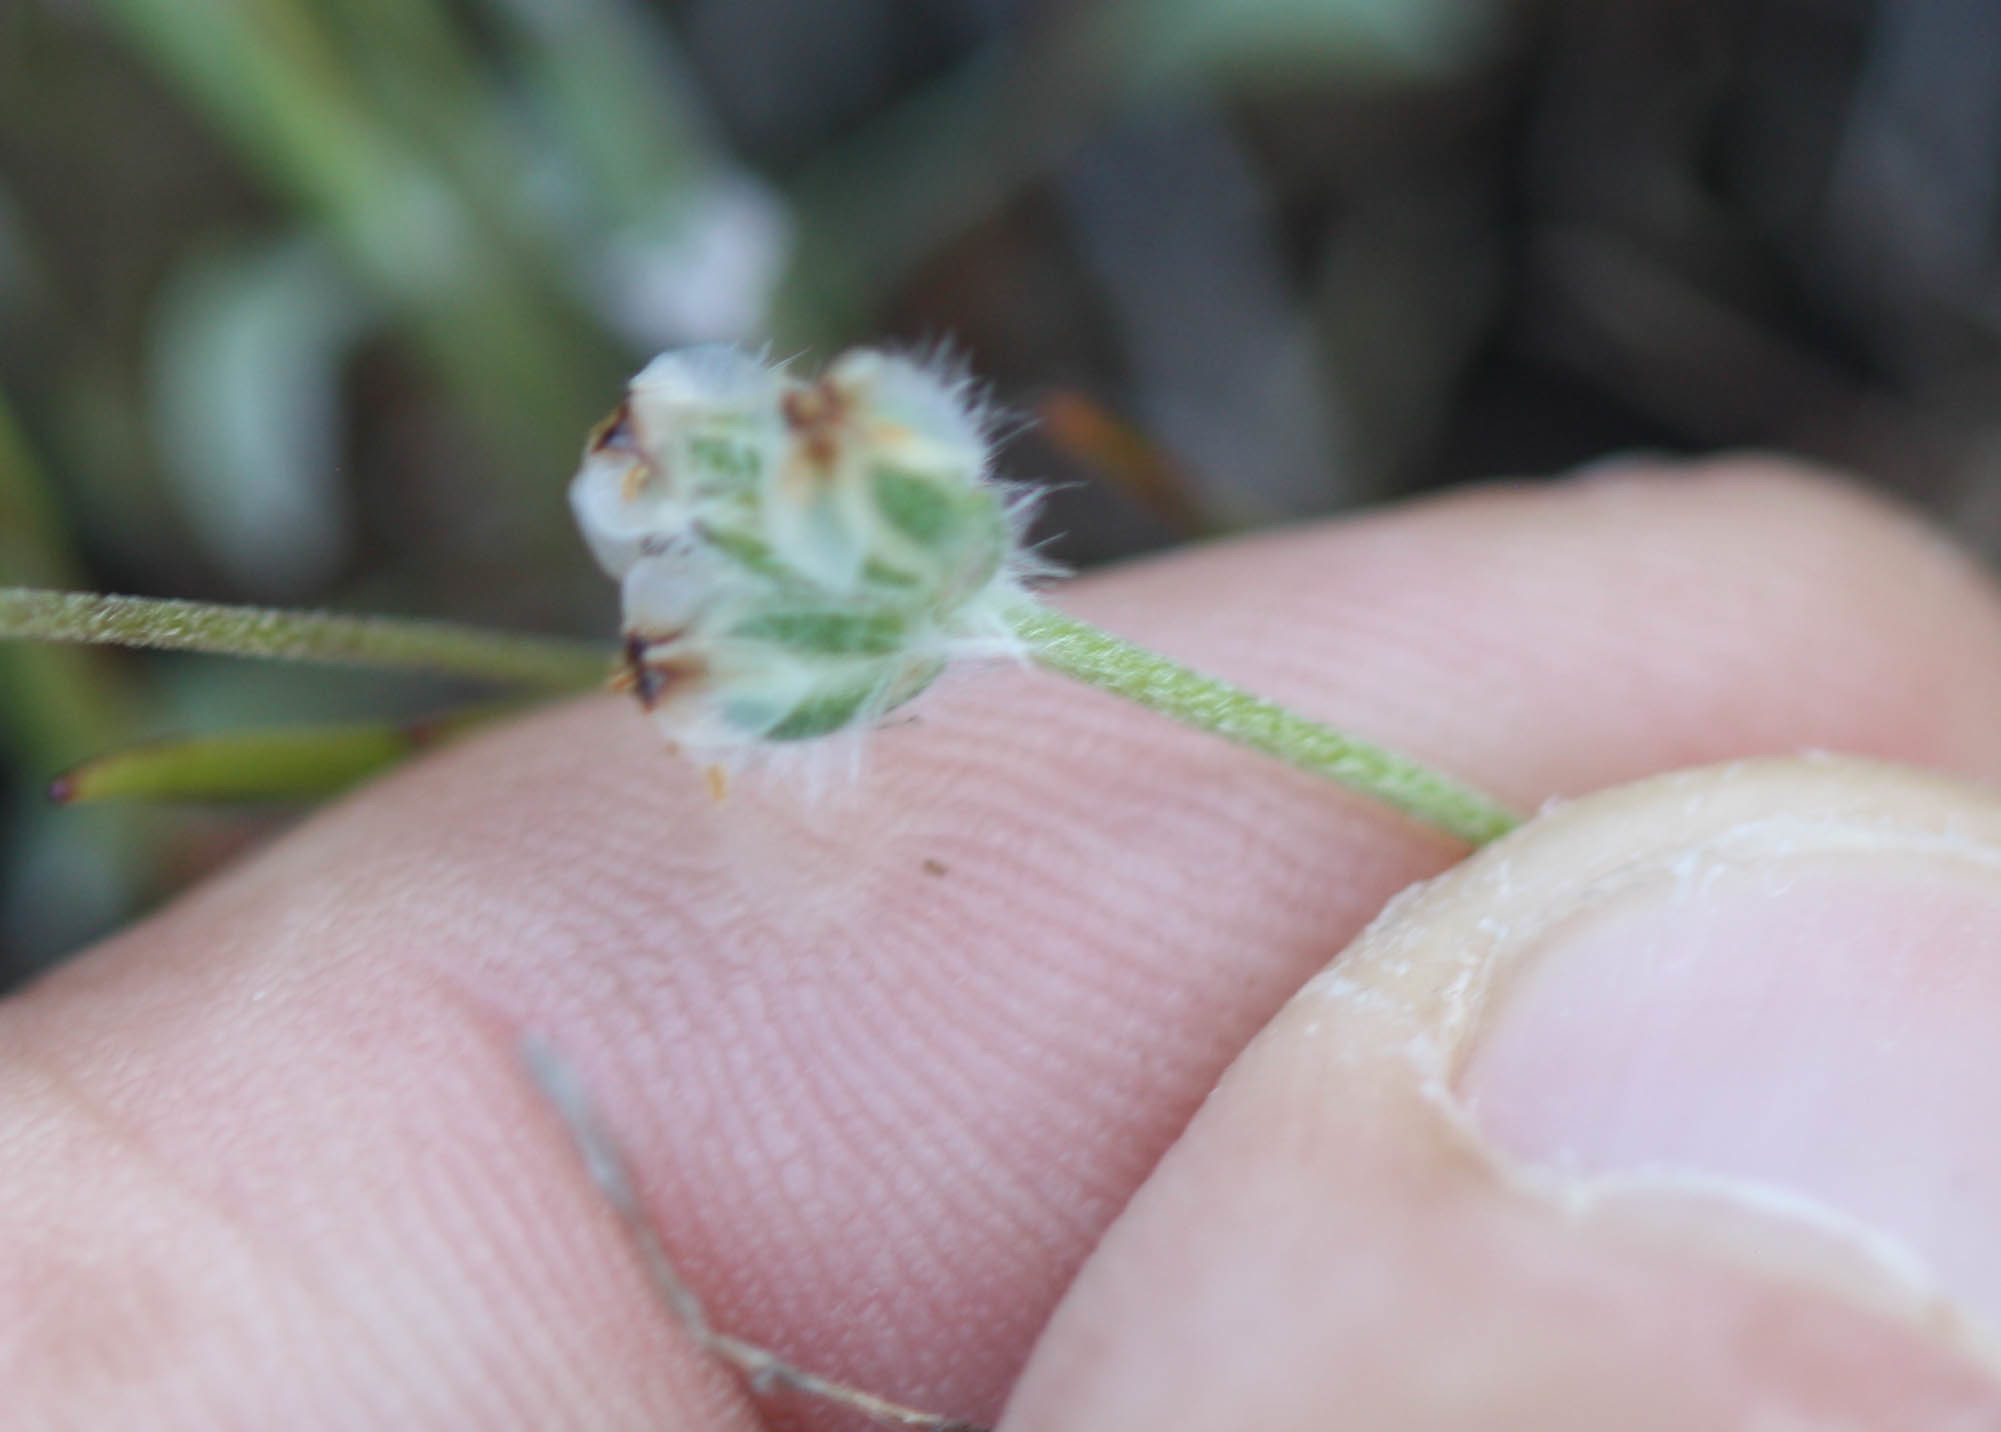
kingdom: Plantae
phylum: Tracheophyta
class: Magnoliopsida
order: Lamiales
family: Plantaginaceae
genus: Plantago
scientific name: Plantago erecta
